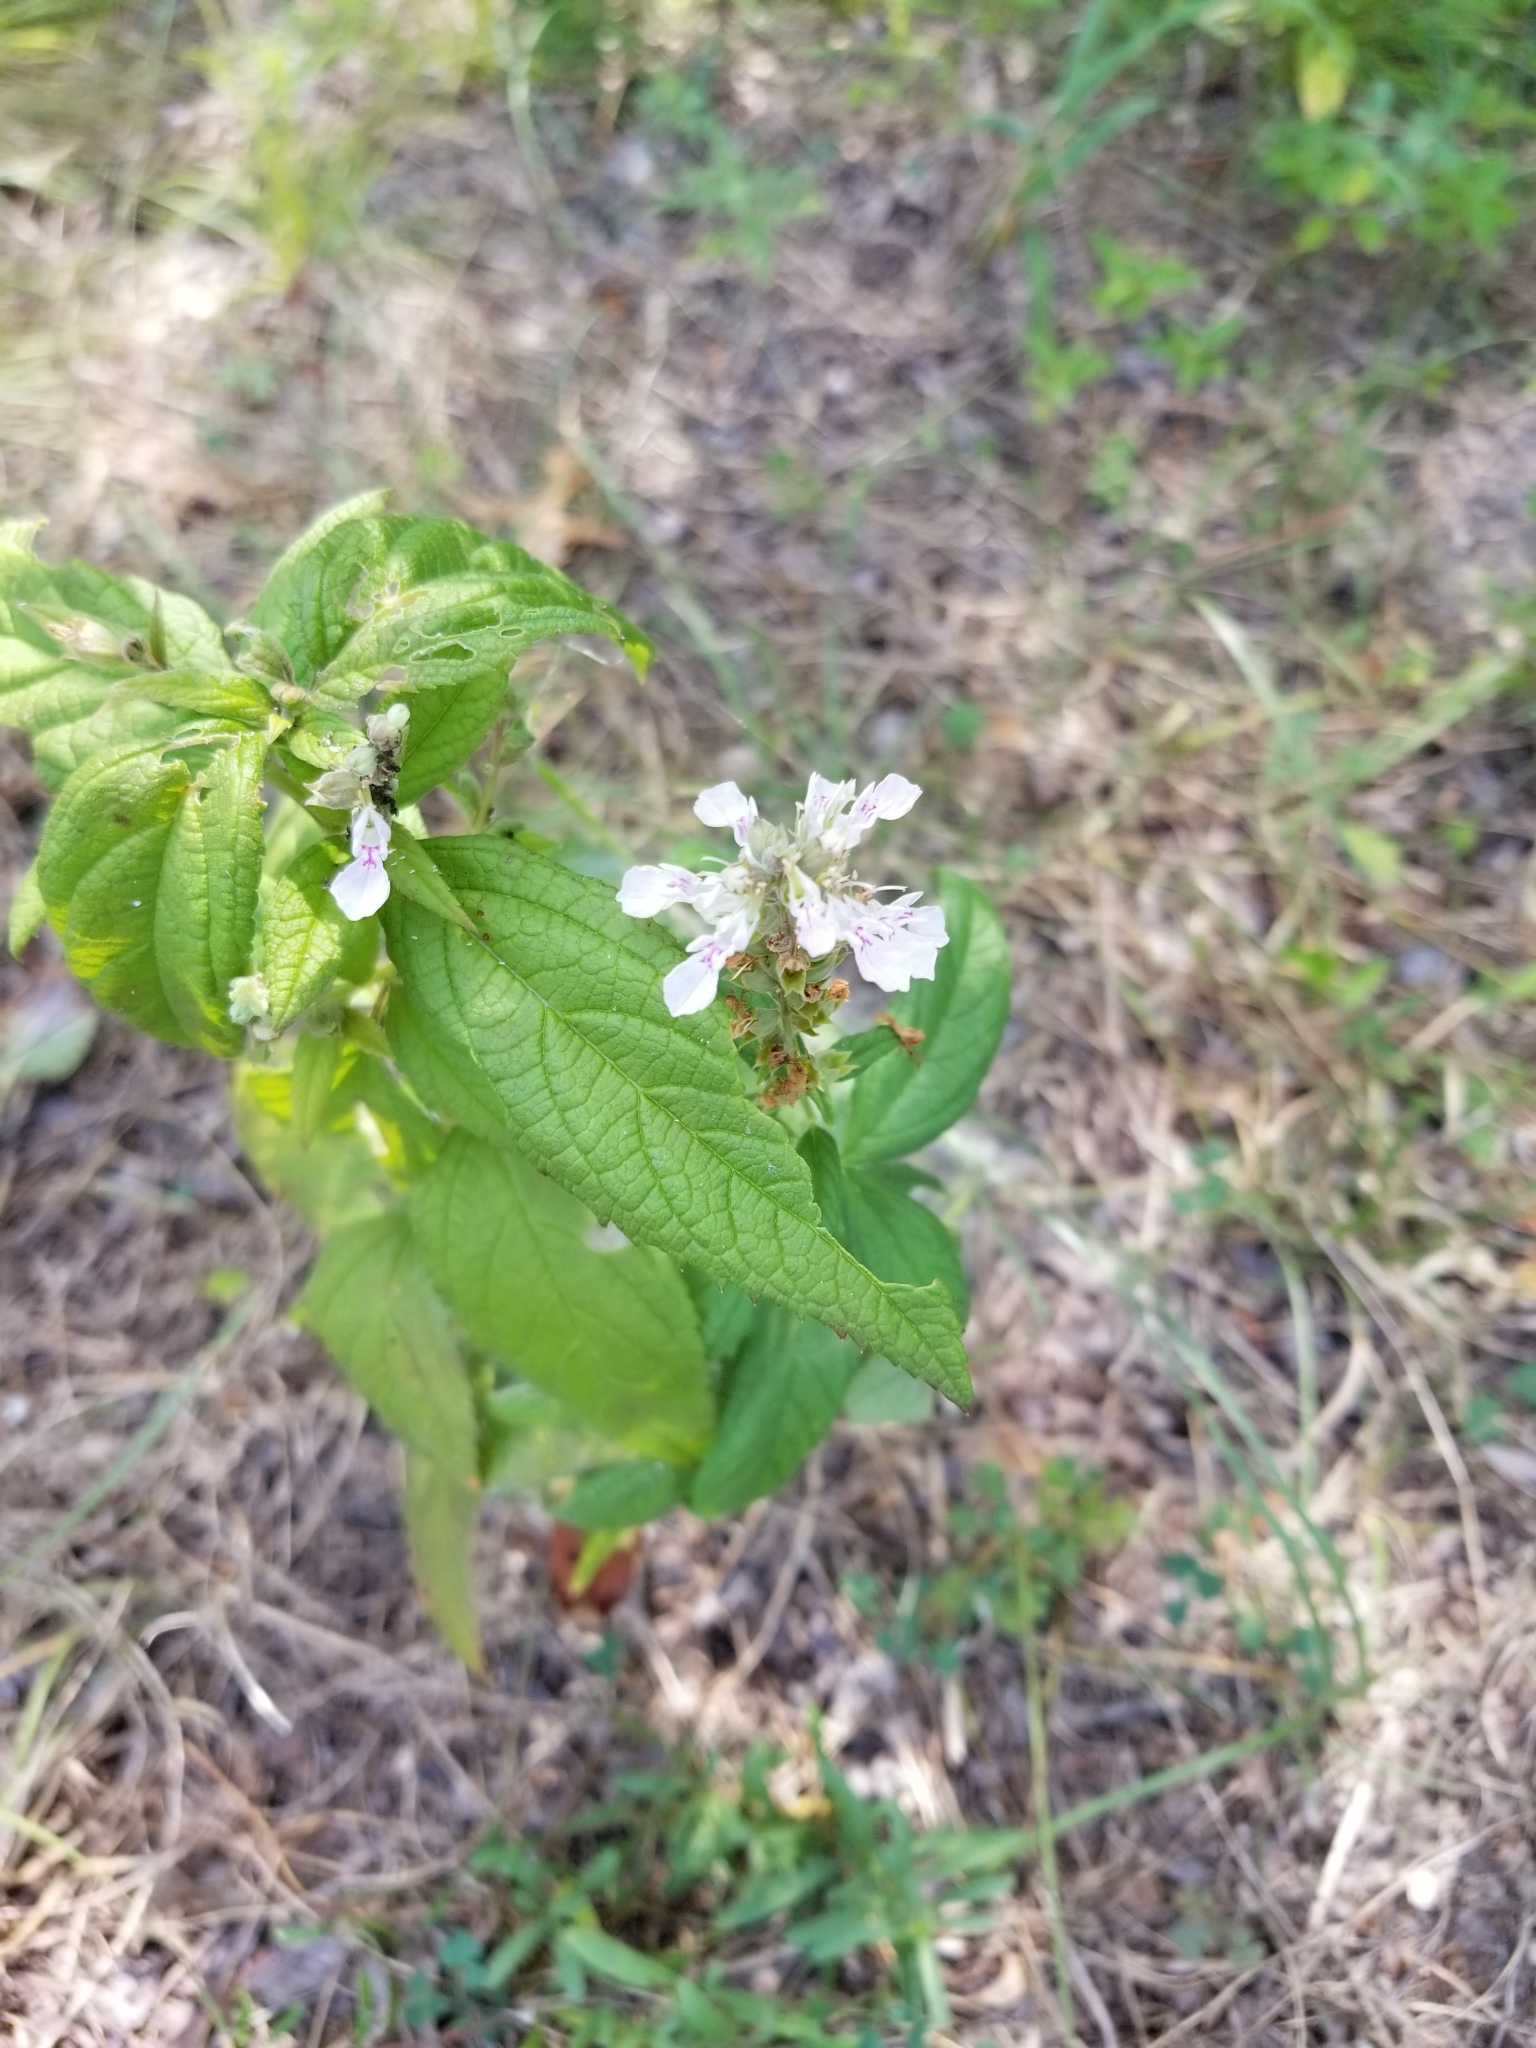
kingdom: Plantae
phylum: Tracheophyta
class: Magnoliopsida
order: Lamiales
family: Lamiaceae
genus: Teucrium
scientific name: Teucrium canadense
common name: American germander
